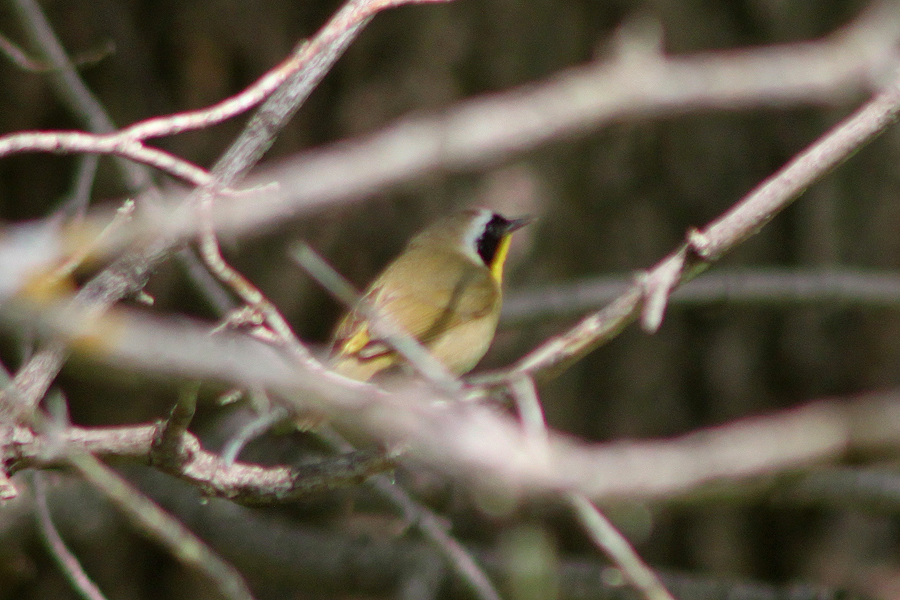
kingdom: Animalia
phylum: Chordata
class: Aves
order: Passeriformes
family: Parulidae
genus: Geothlypis
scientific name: Geothlypis trichas
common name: Common yellowthroat
